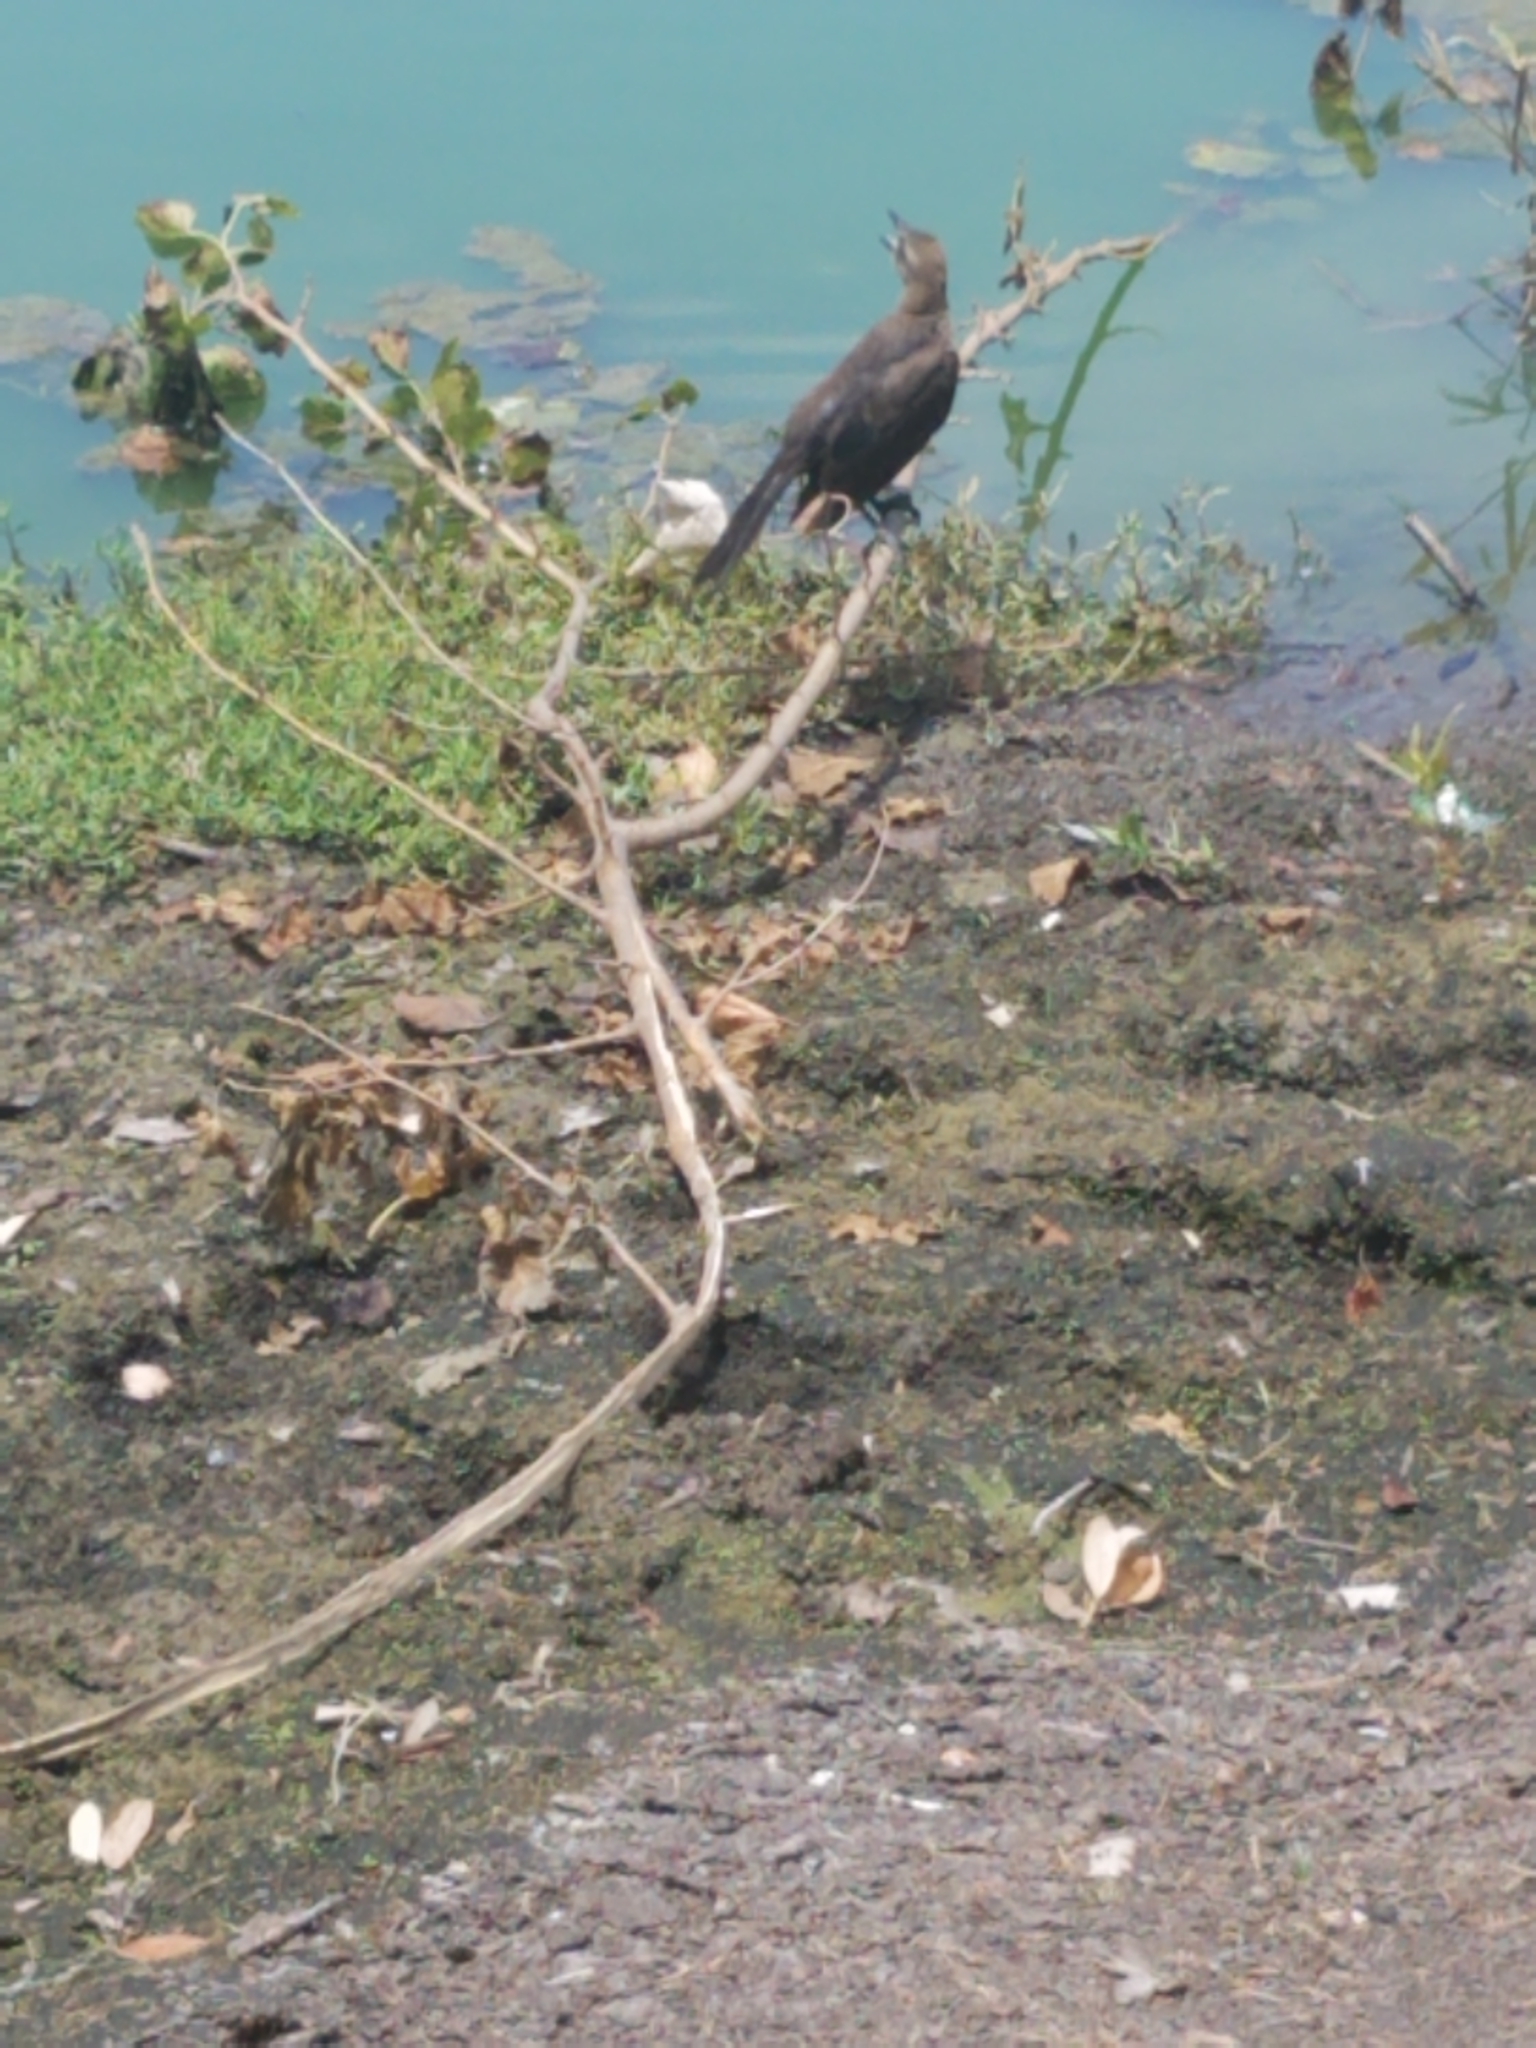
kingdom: Animalia
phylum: Chordata
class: Aves
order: Passeriformes
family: Icteridae
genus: Quiscalus
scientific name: Quiscalus mexicanus
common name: Great-tailed grackle
